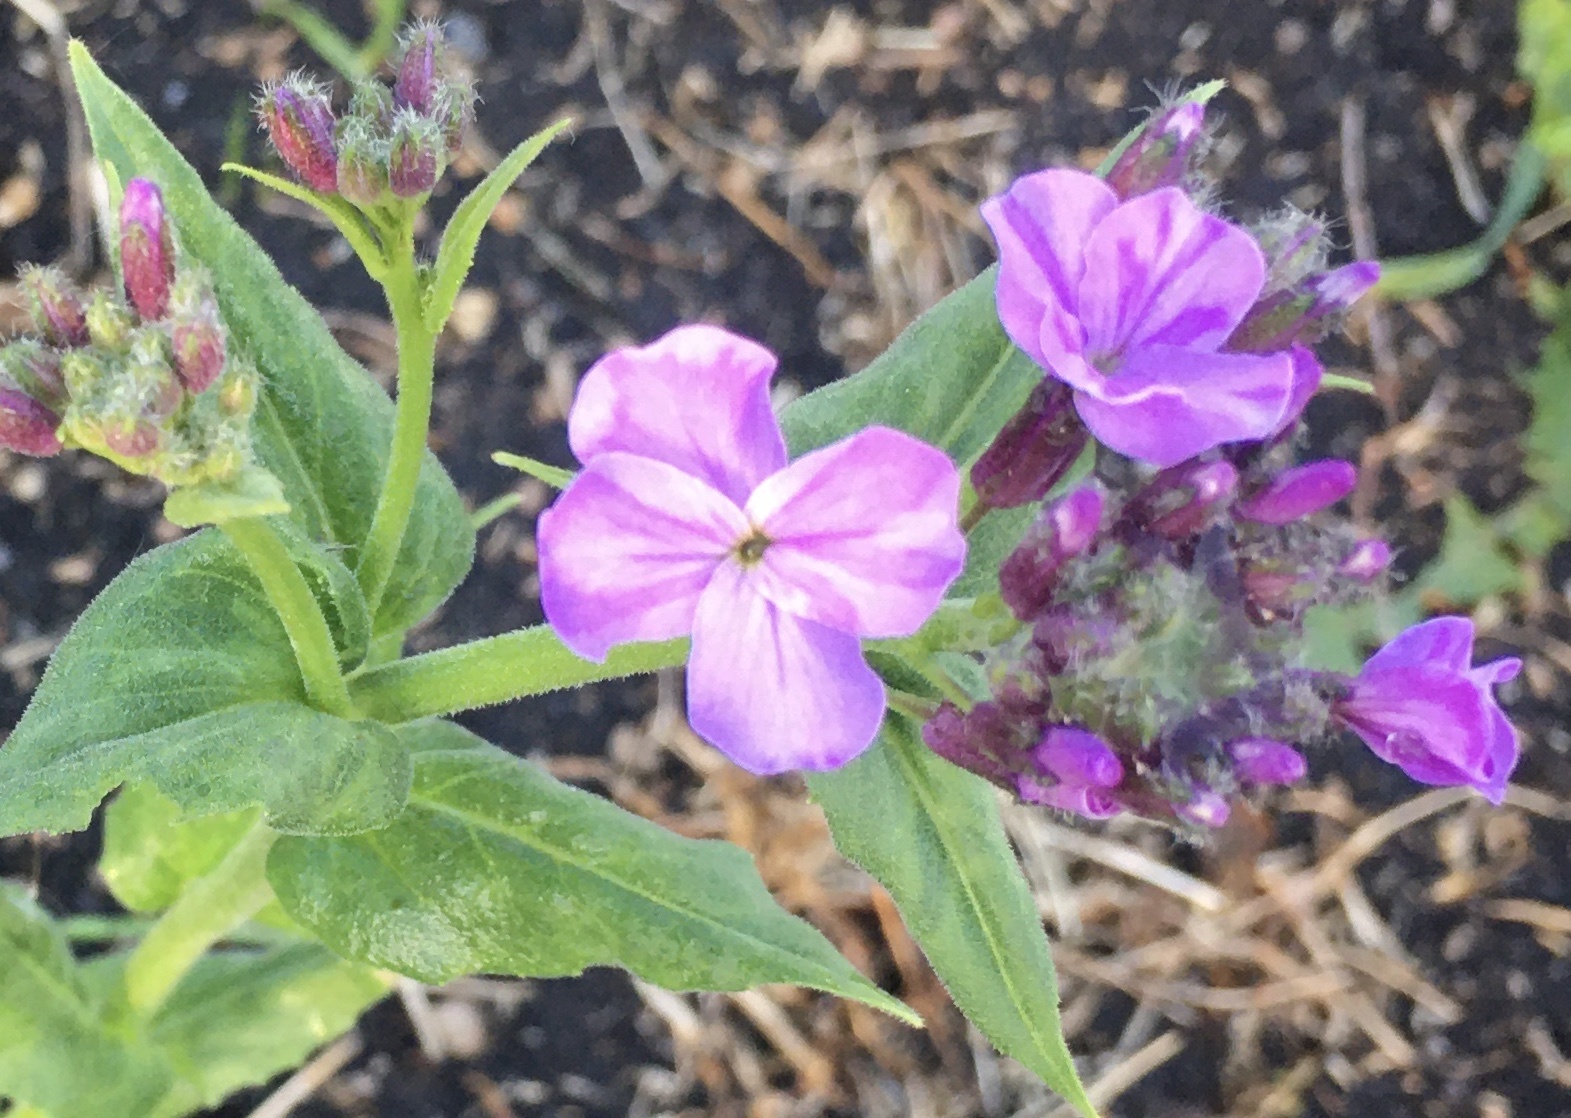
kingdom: Plantae
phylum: Tracheophyta
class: Magnoliopsida
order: Brassicales
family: Brassicaceae
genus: Hesperis
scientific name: Hesperis matronalis
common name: Dame's-violet
